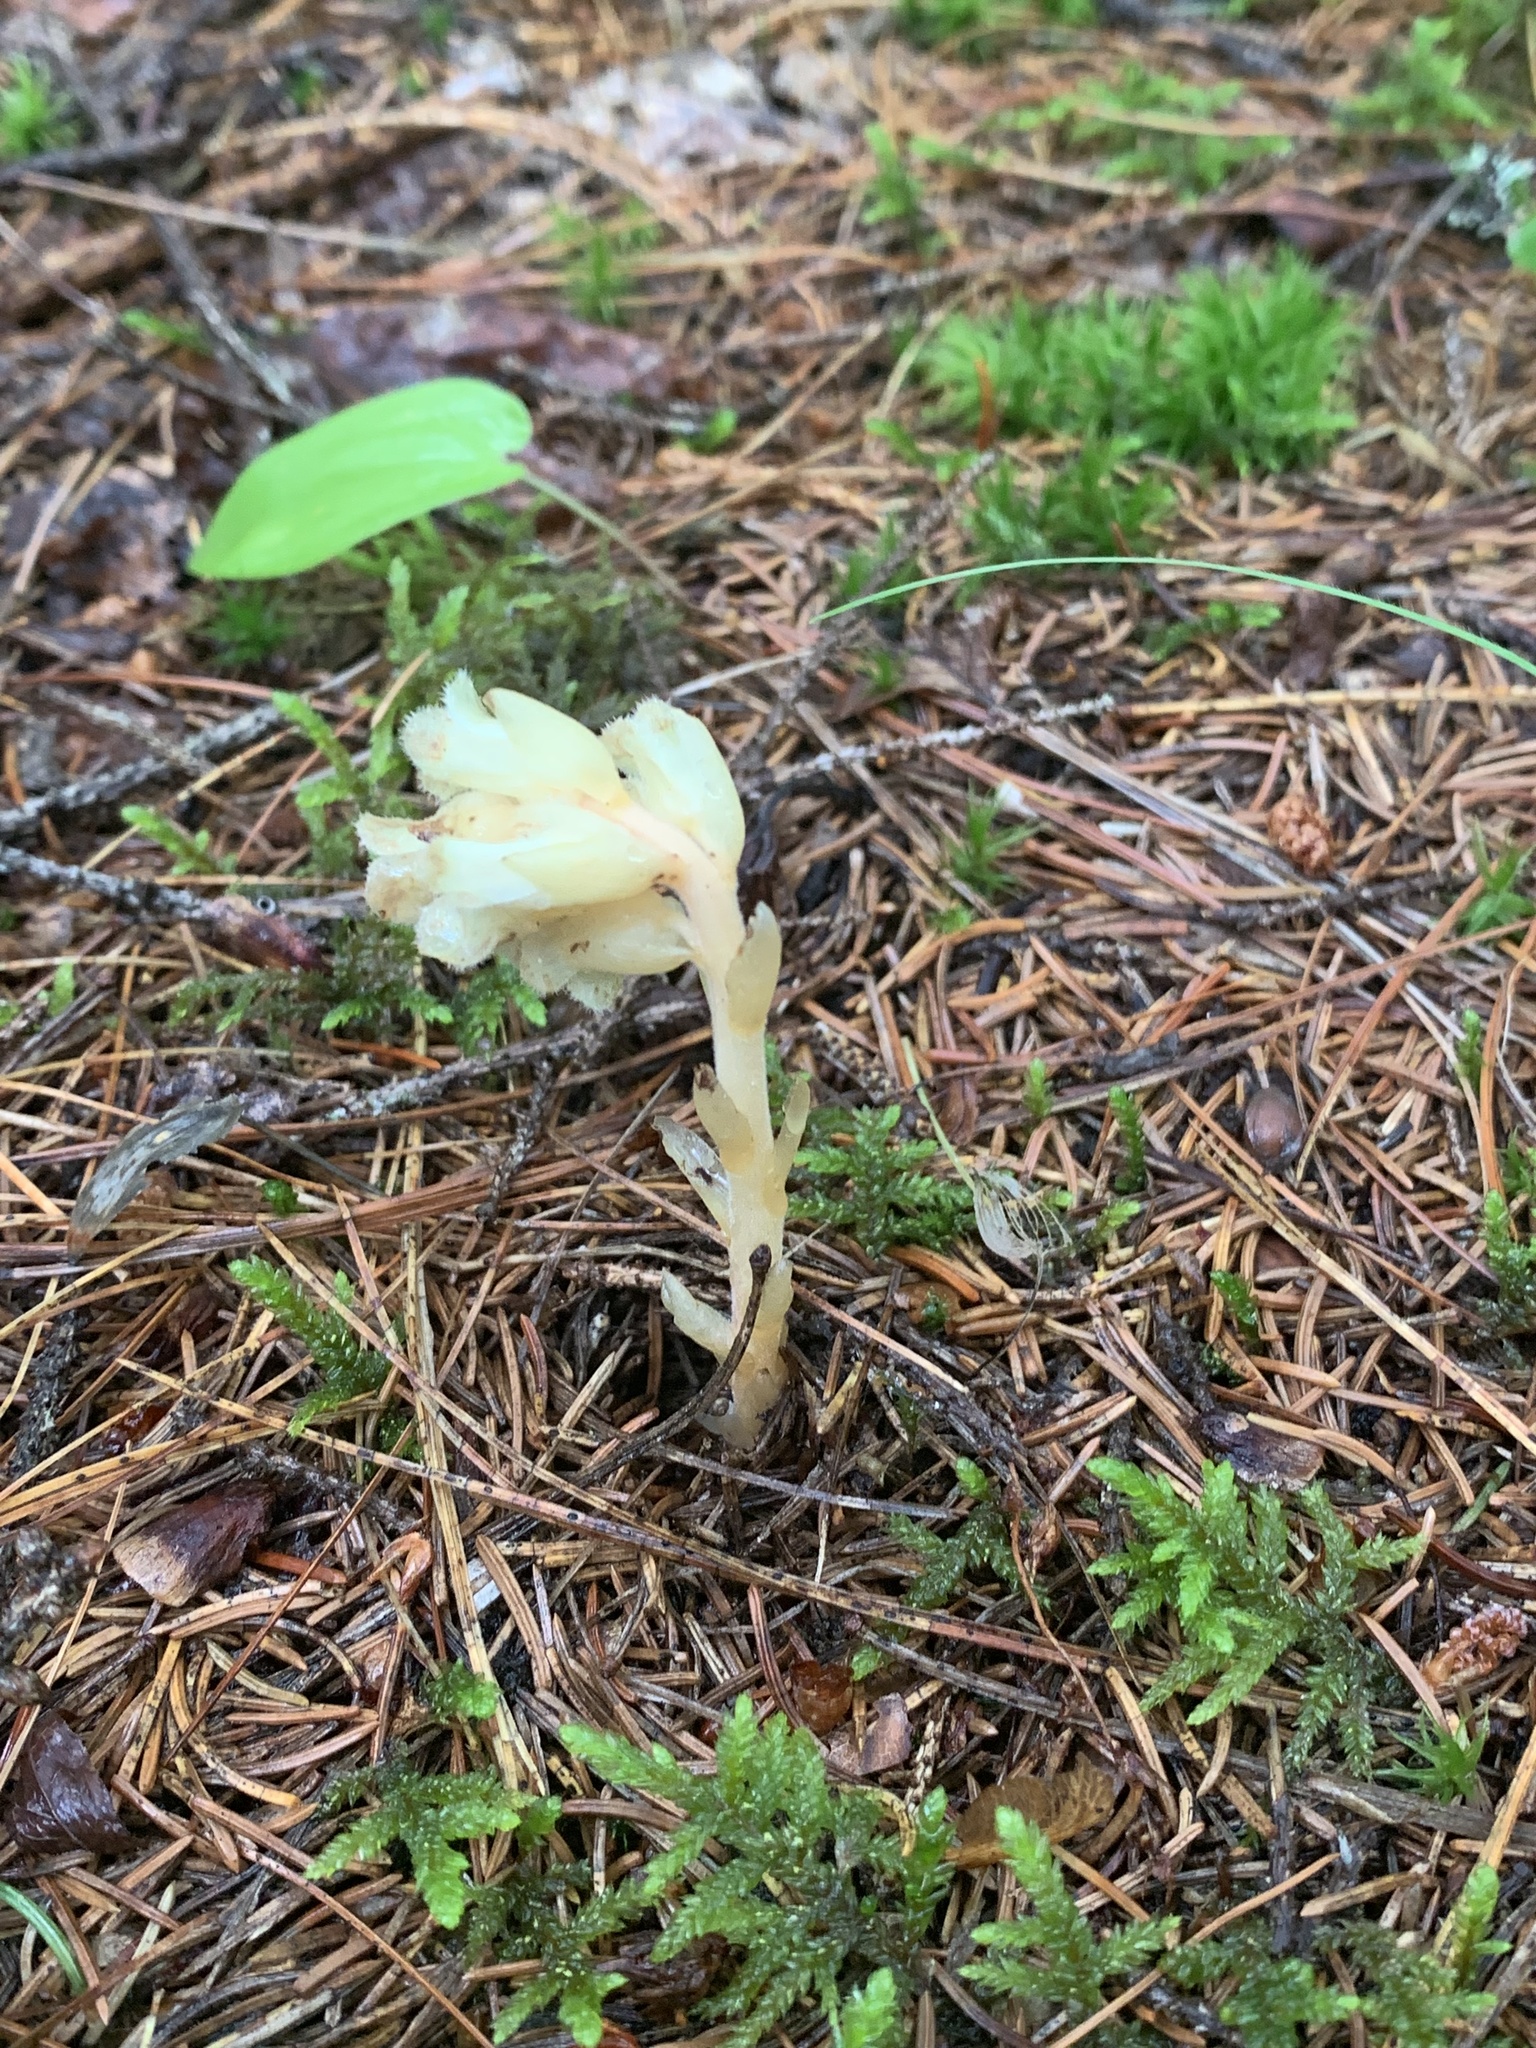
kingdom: Plantae
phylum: Tracheophyta
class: Magnoliopsida
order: Ericales
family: Ericaceae
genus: Hypopitys
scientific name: Hypopitys monotropa
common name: Yellow bird's-nest
